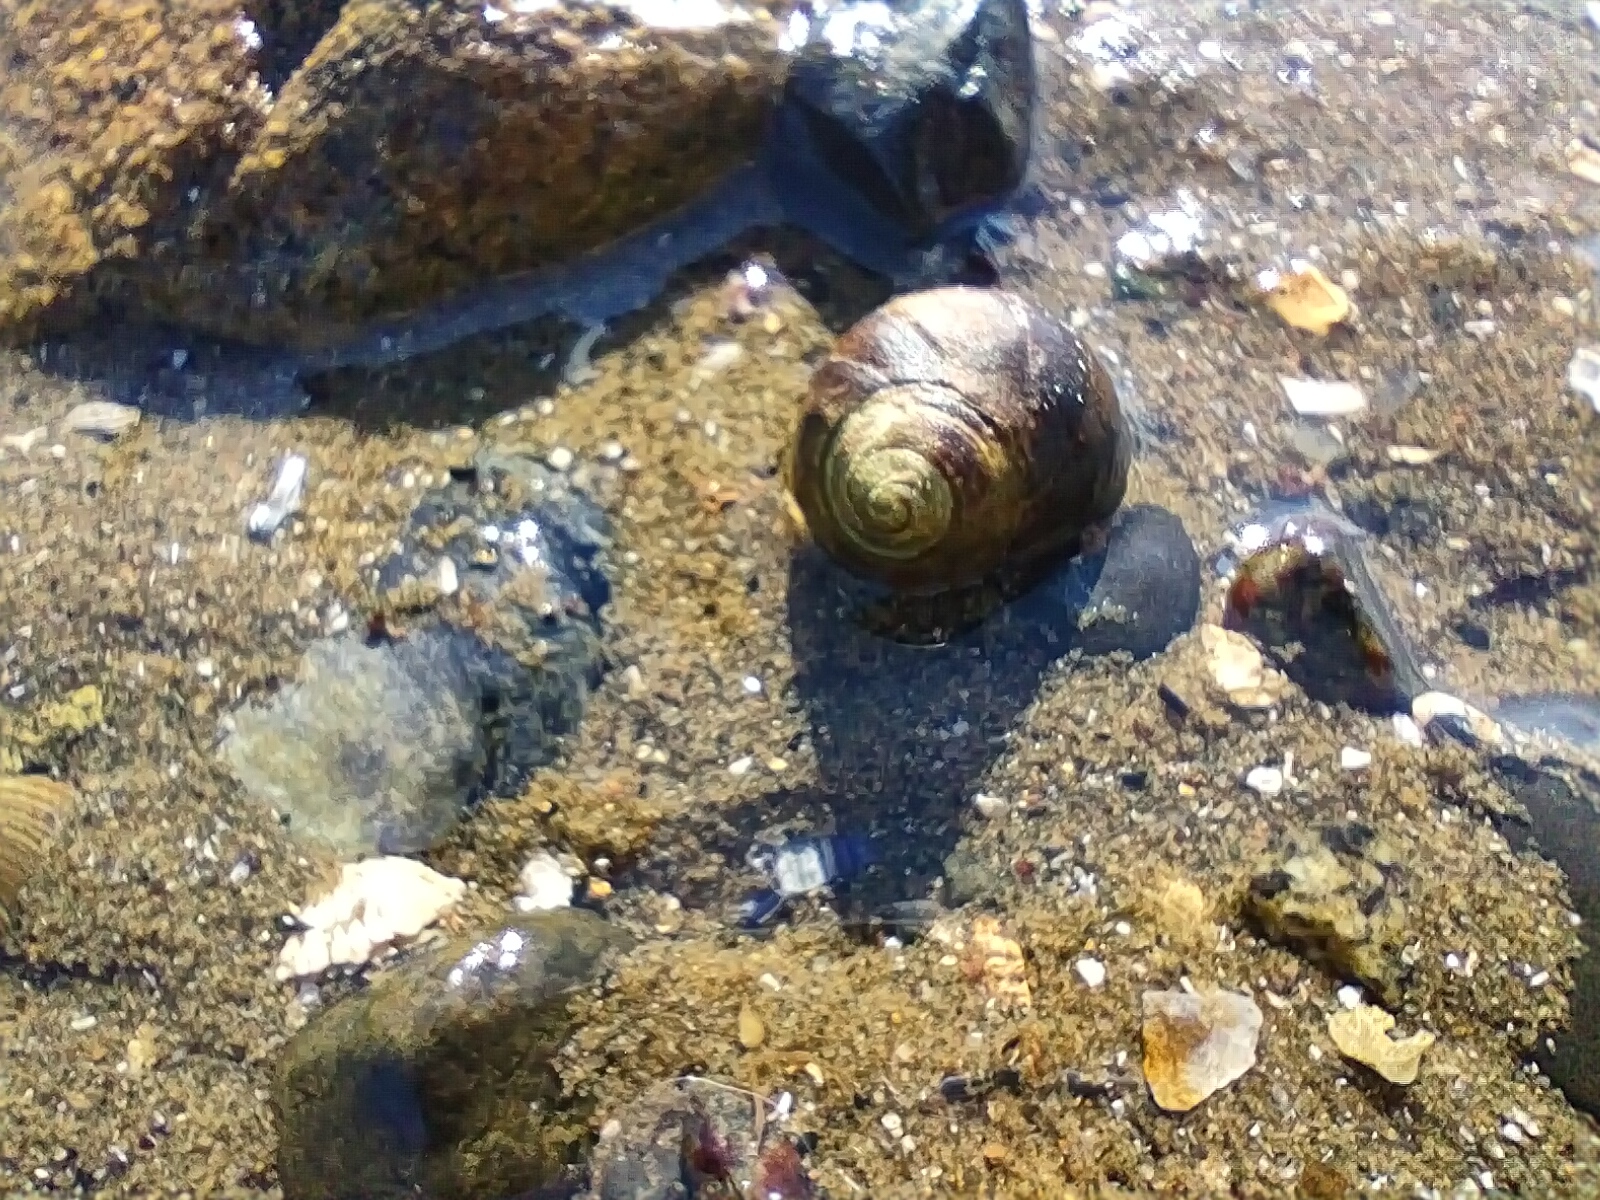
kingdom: Animalia
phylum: Mollusca
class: Gastropoda
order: Littorinimorpha
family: Littorinidae
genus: Littorina
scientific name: Littorina littorea
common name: Common periwinkle
